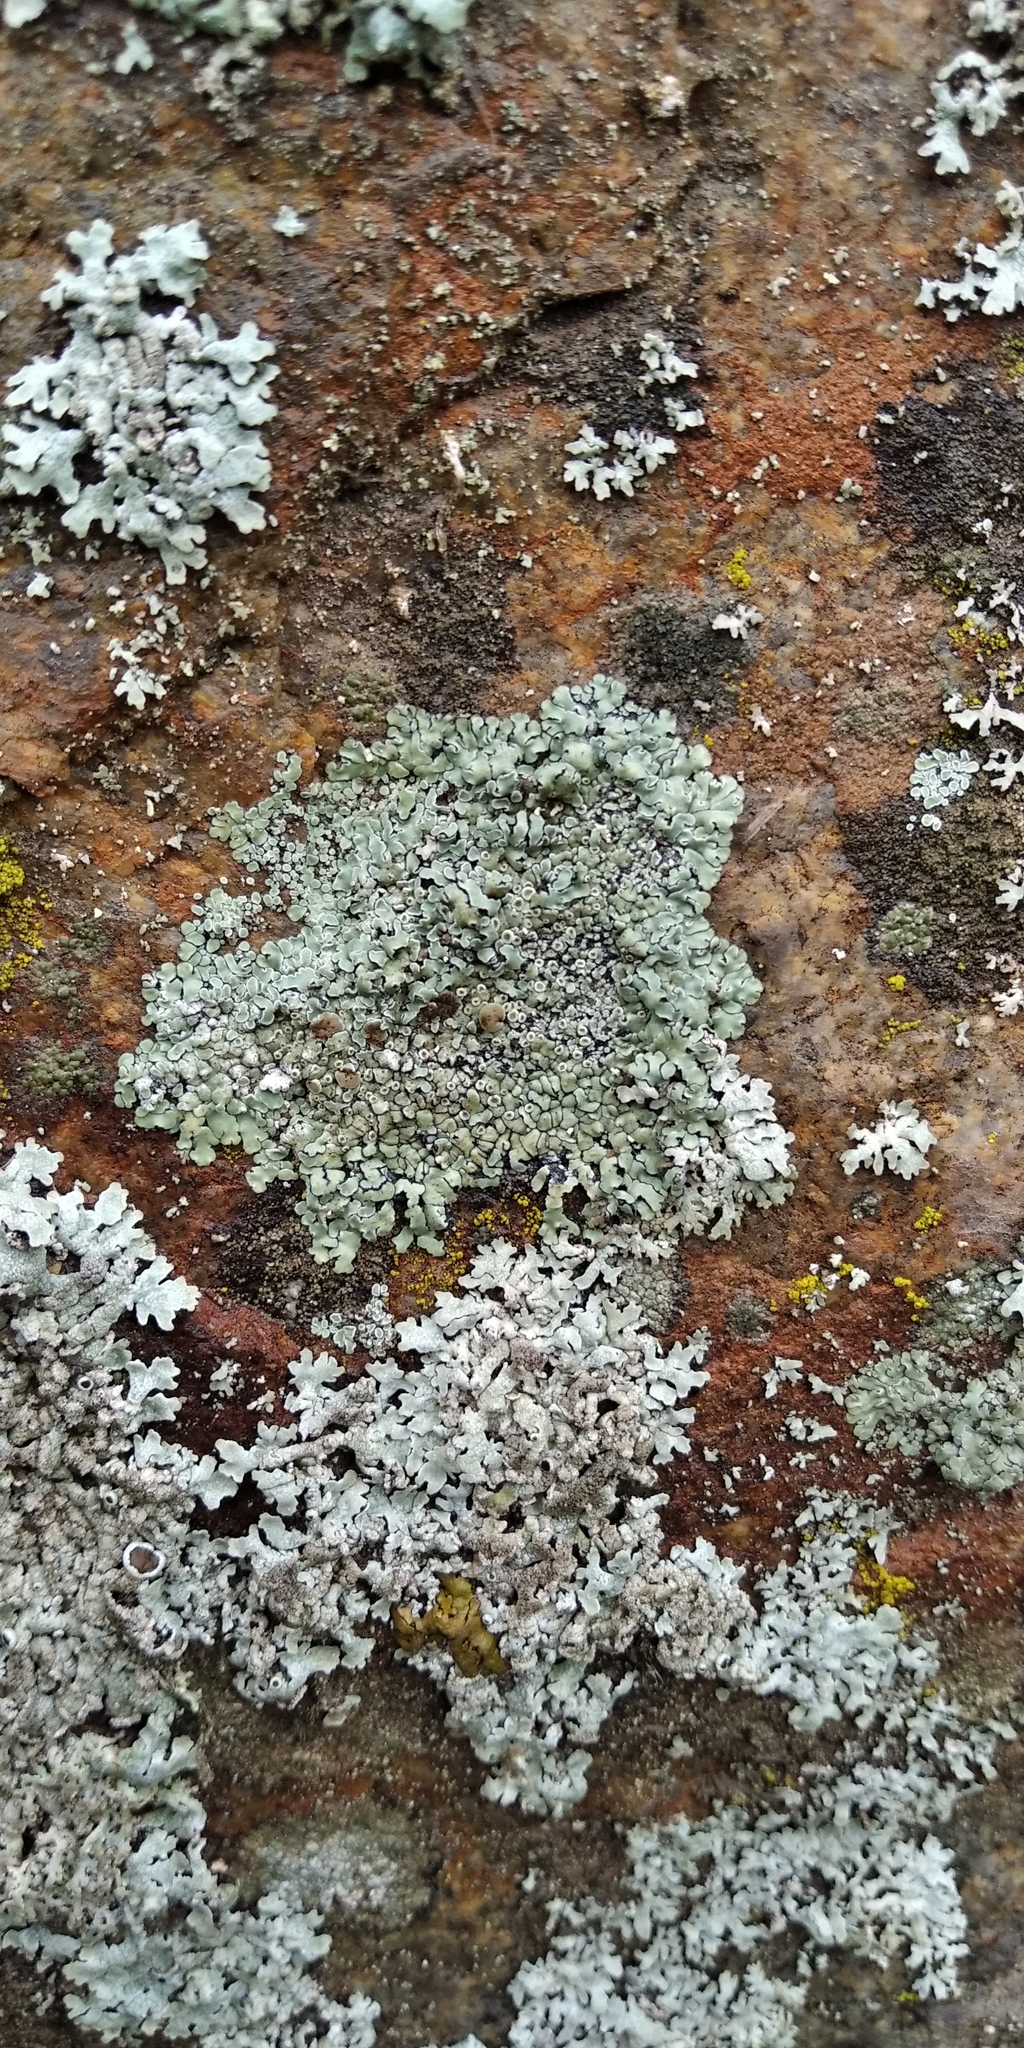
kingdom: Fungi
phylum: Ascomycota
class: Lecanoromycetes
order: Lecanorales
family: Lecanoraceae
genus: Protoparmeliopsis
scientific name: Protoparmeliopsis muralis
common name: Stonewall rim lichen
